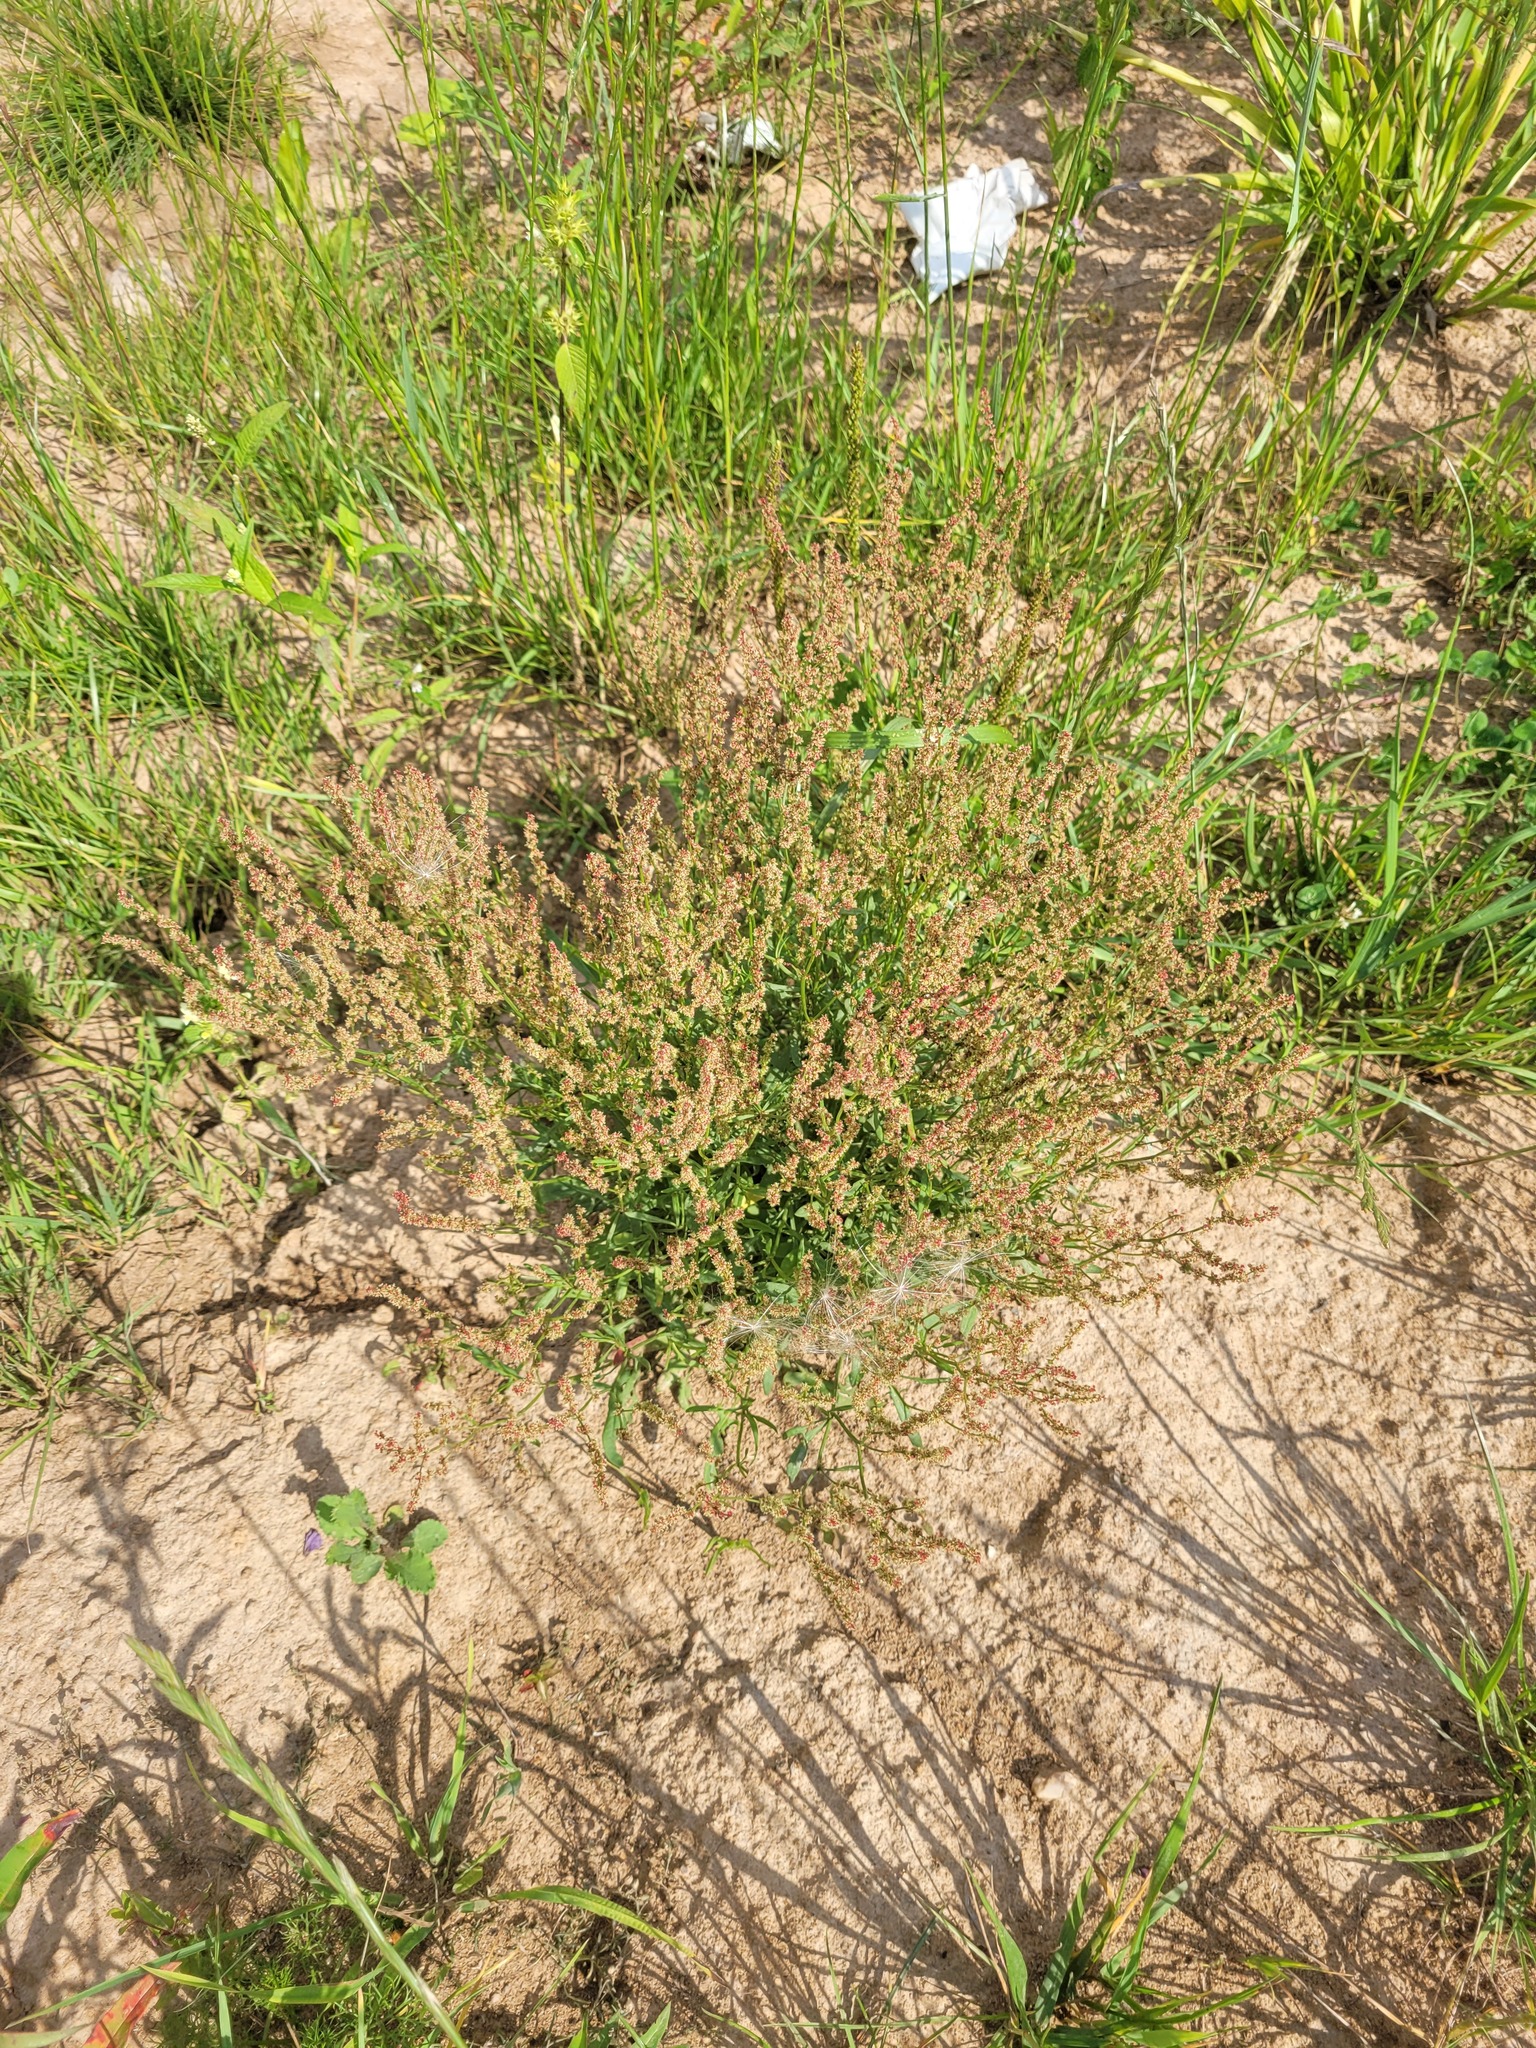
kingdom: Plantae
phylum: Tracheophyta
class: Magnoliopsida
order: Caryophyllales
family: Polygonaceae
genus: Rumex
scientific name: Rumex acetosella
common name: Common sheep sorrel
